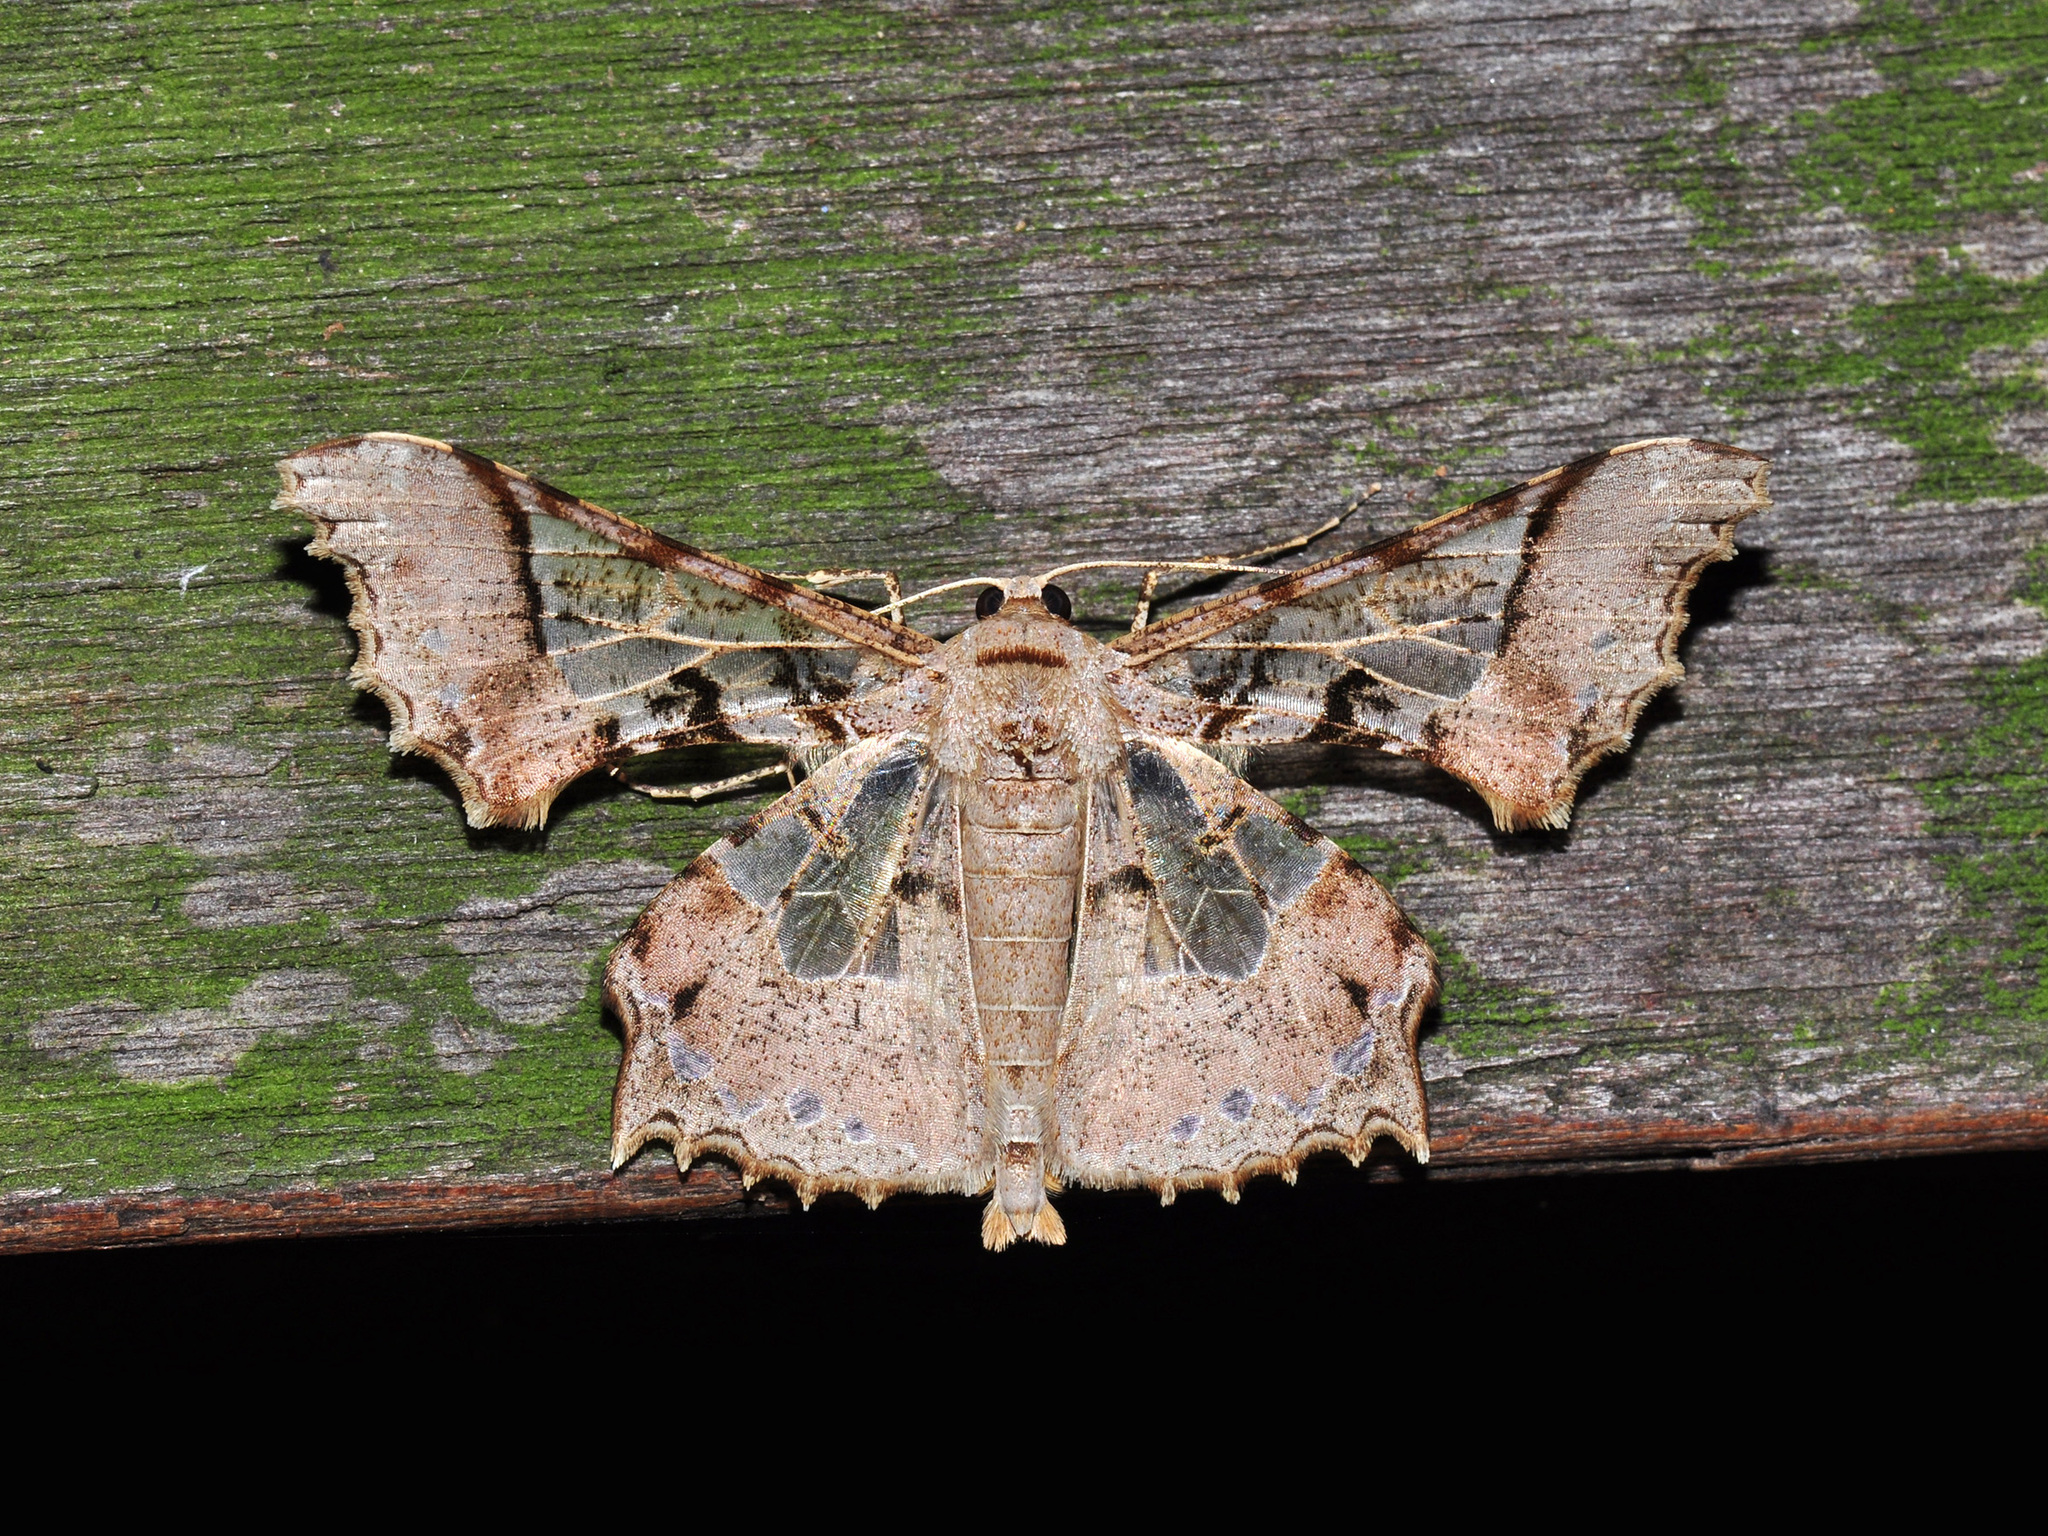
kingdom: Animalia
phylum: Arthropoda
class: Insecta
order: Lepidoptera
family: Geometridae
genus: Krananda
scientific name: Krananda semihyalina
